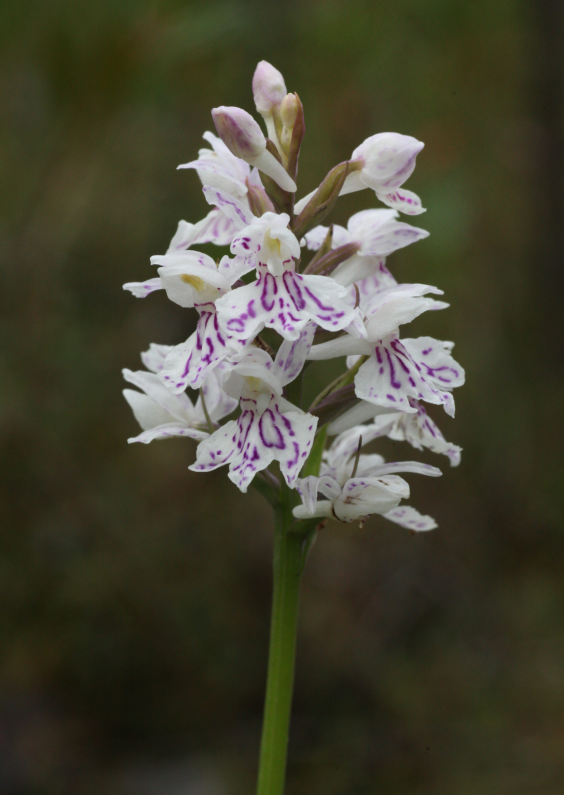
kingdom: Plantae
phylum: Tracheophyta
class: Liliopsida
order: Asparagales
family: Orchidaceae
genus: Dactylorhiza
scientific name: Dactylorhiza maculata
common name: Heath spotted-orchid
